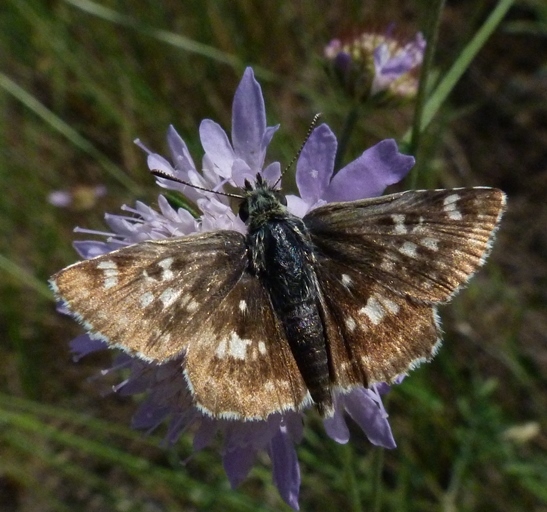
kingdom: Animalia
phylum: Arthropoda
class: Insecta
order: Lepidoptera
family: Hesperiidae
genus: Syrichtus
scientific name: Syrichtus Muschampia proto
